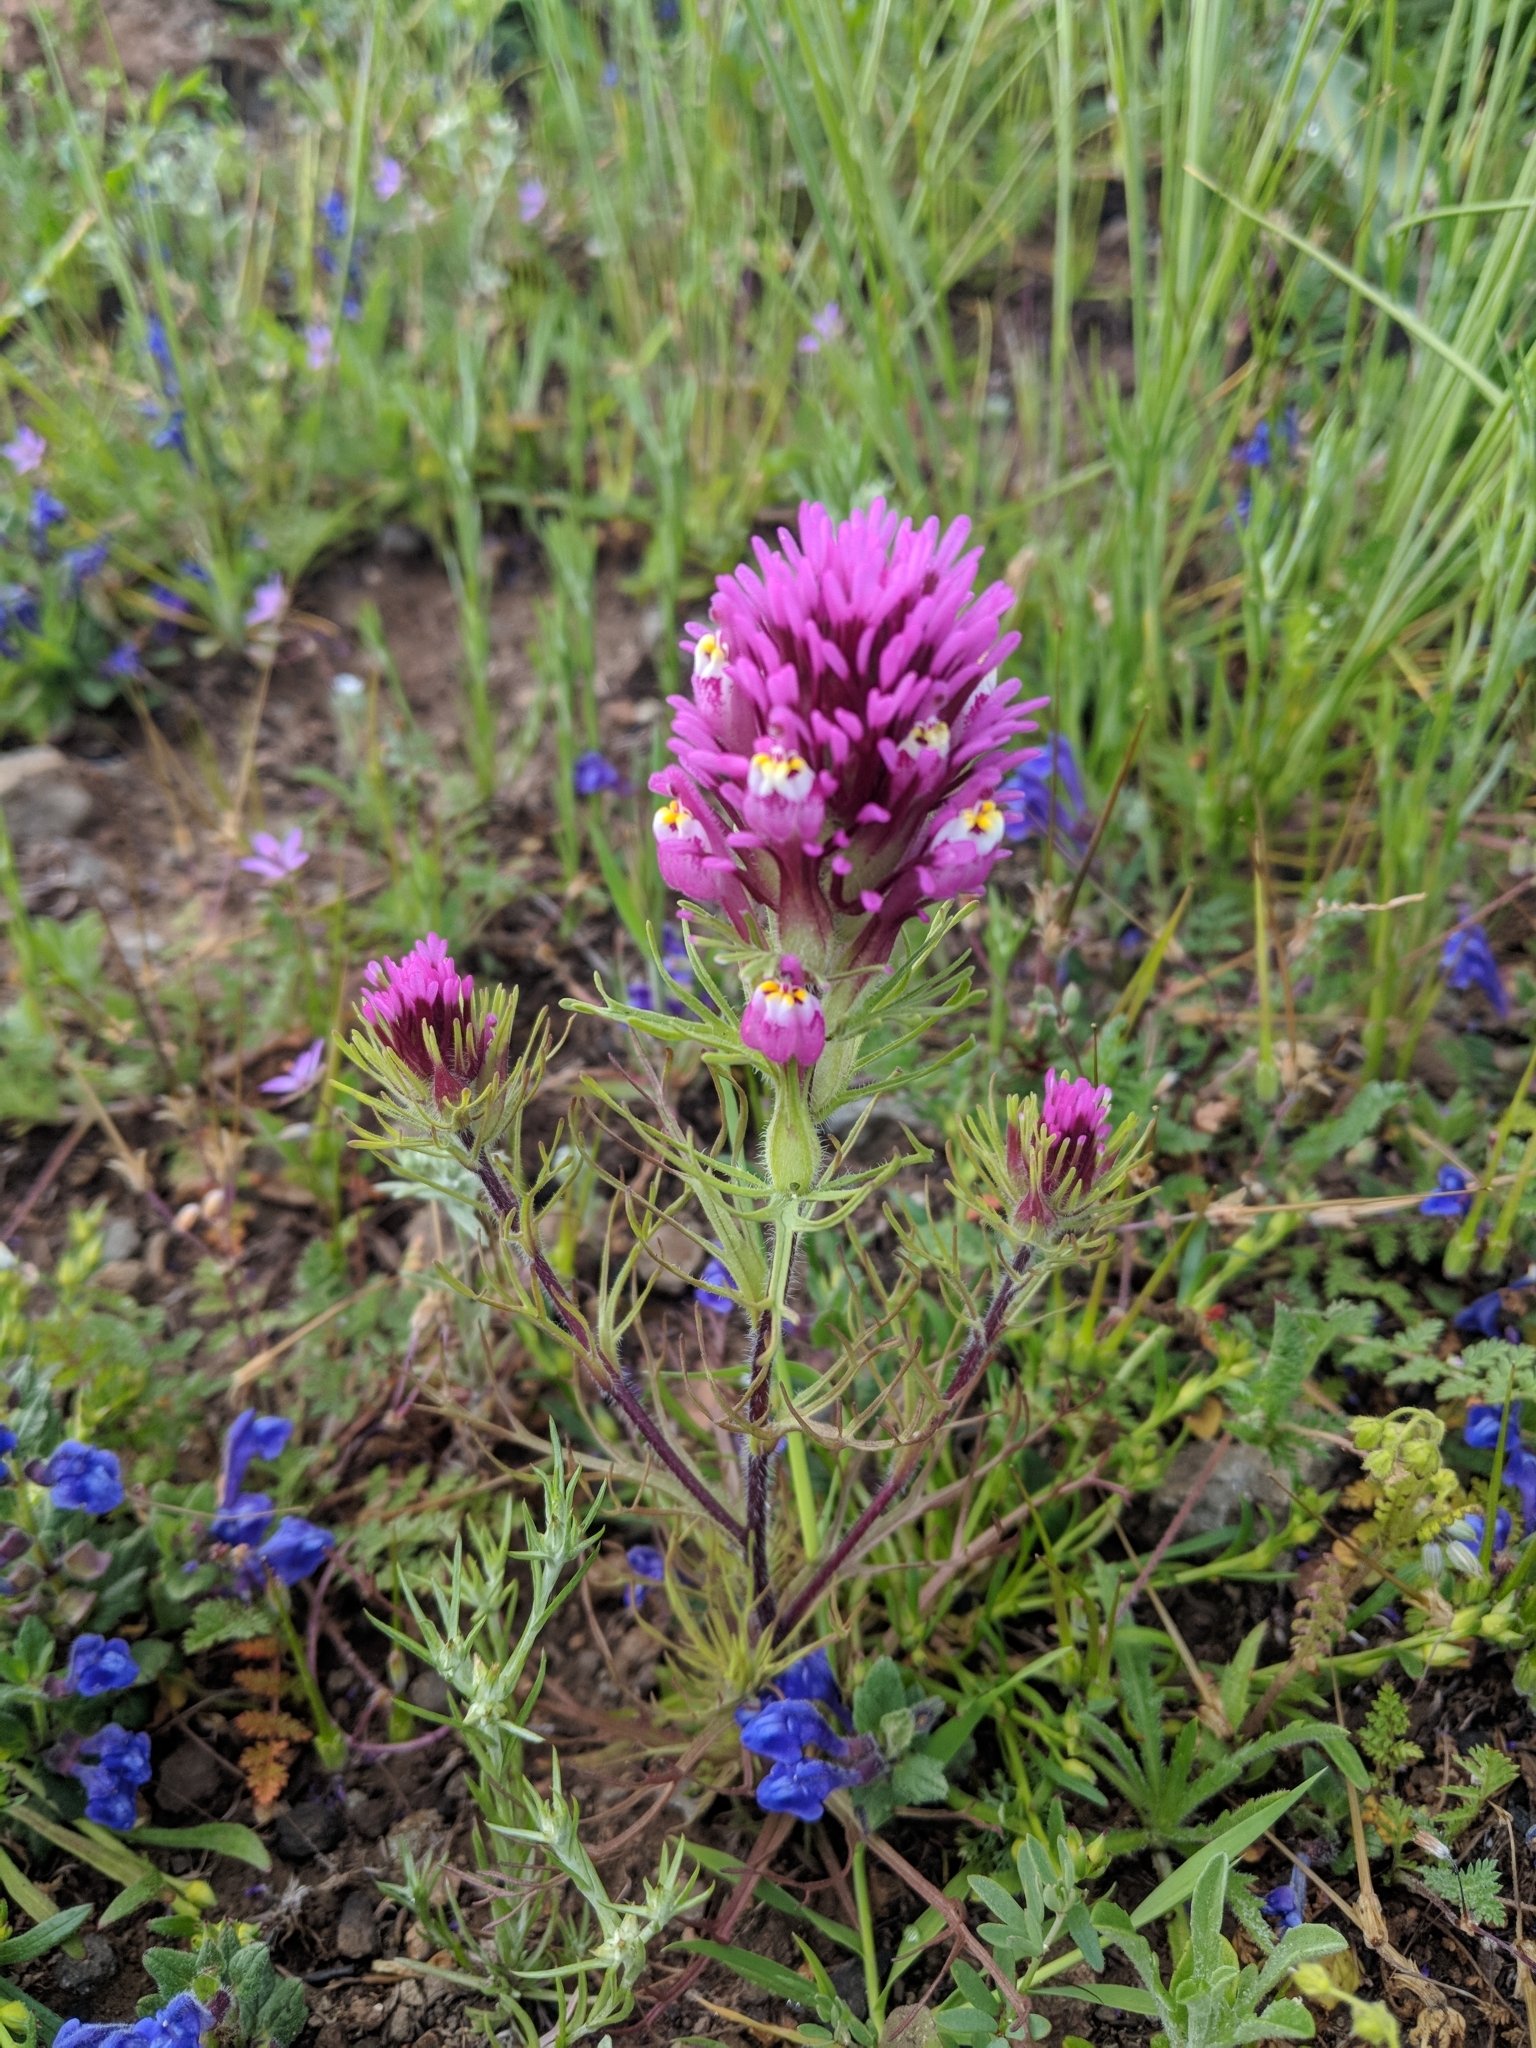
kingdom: Plantae
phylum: Tracheophyta
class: Magnoliopsida
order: Lamiales
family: Orobanchaceae
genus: Castilleja
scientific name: Castilleja exserta
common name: Purple owl-clover
